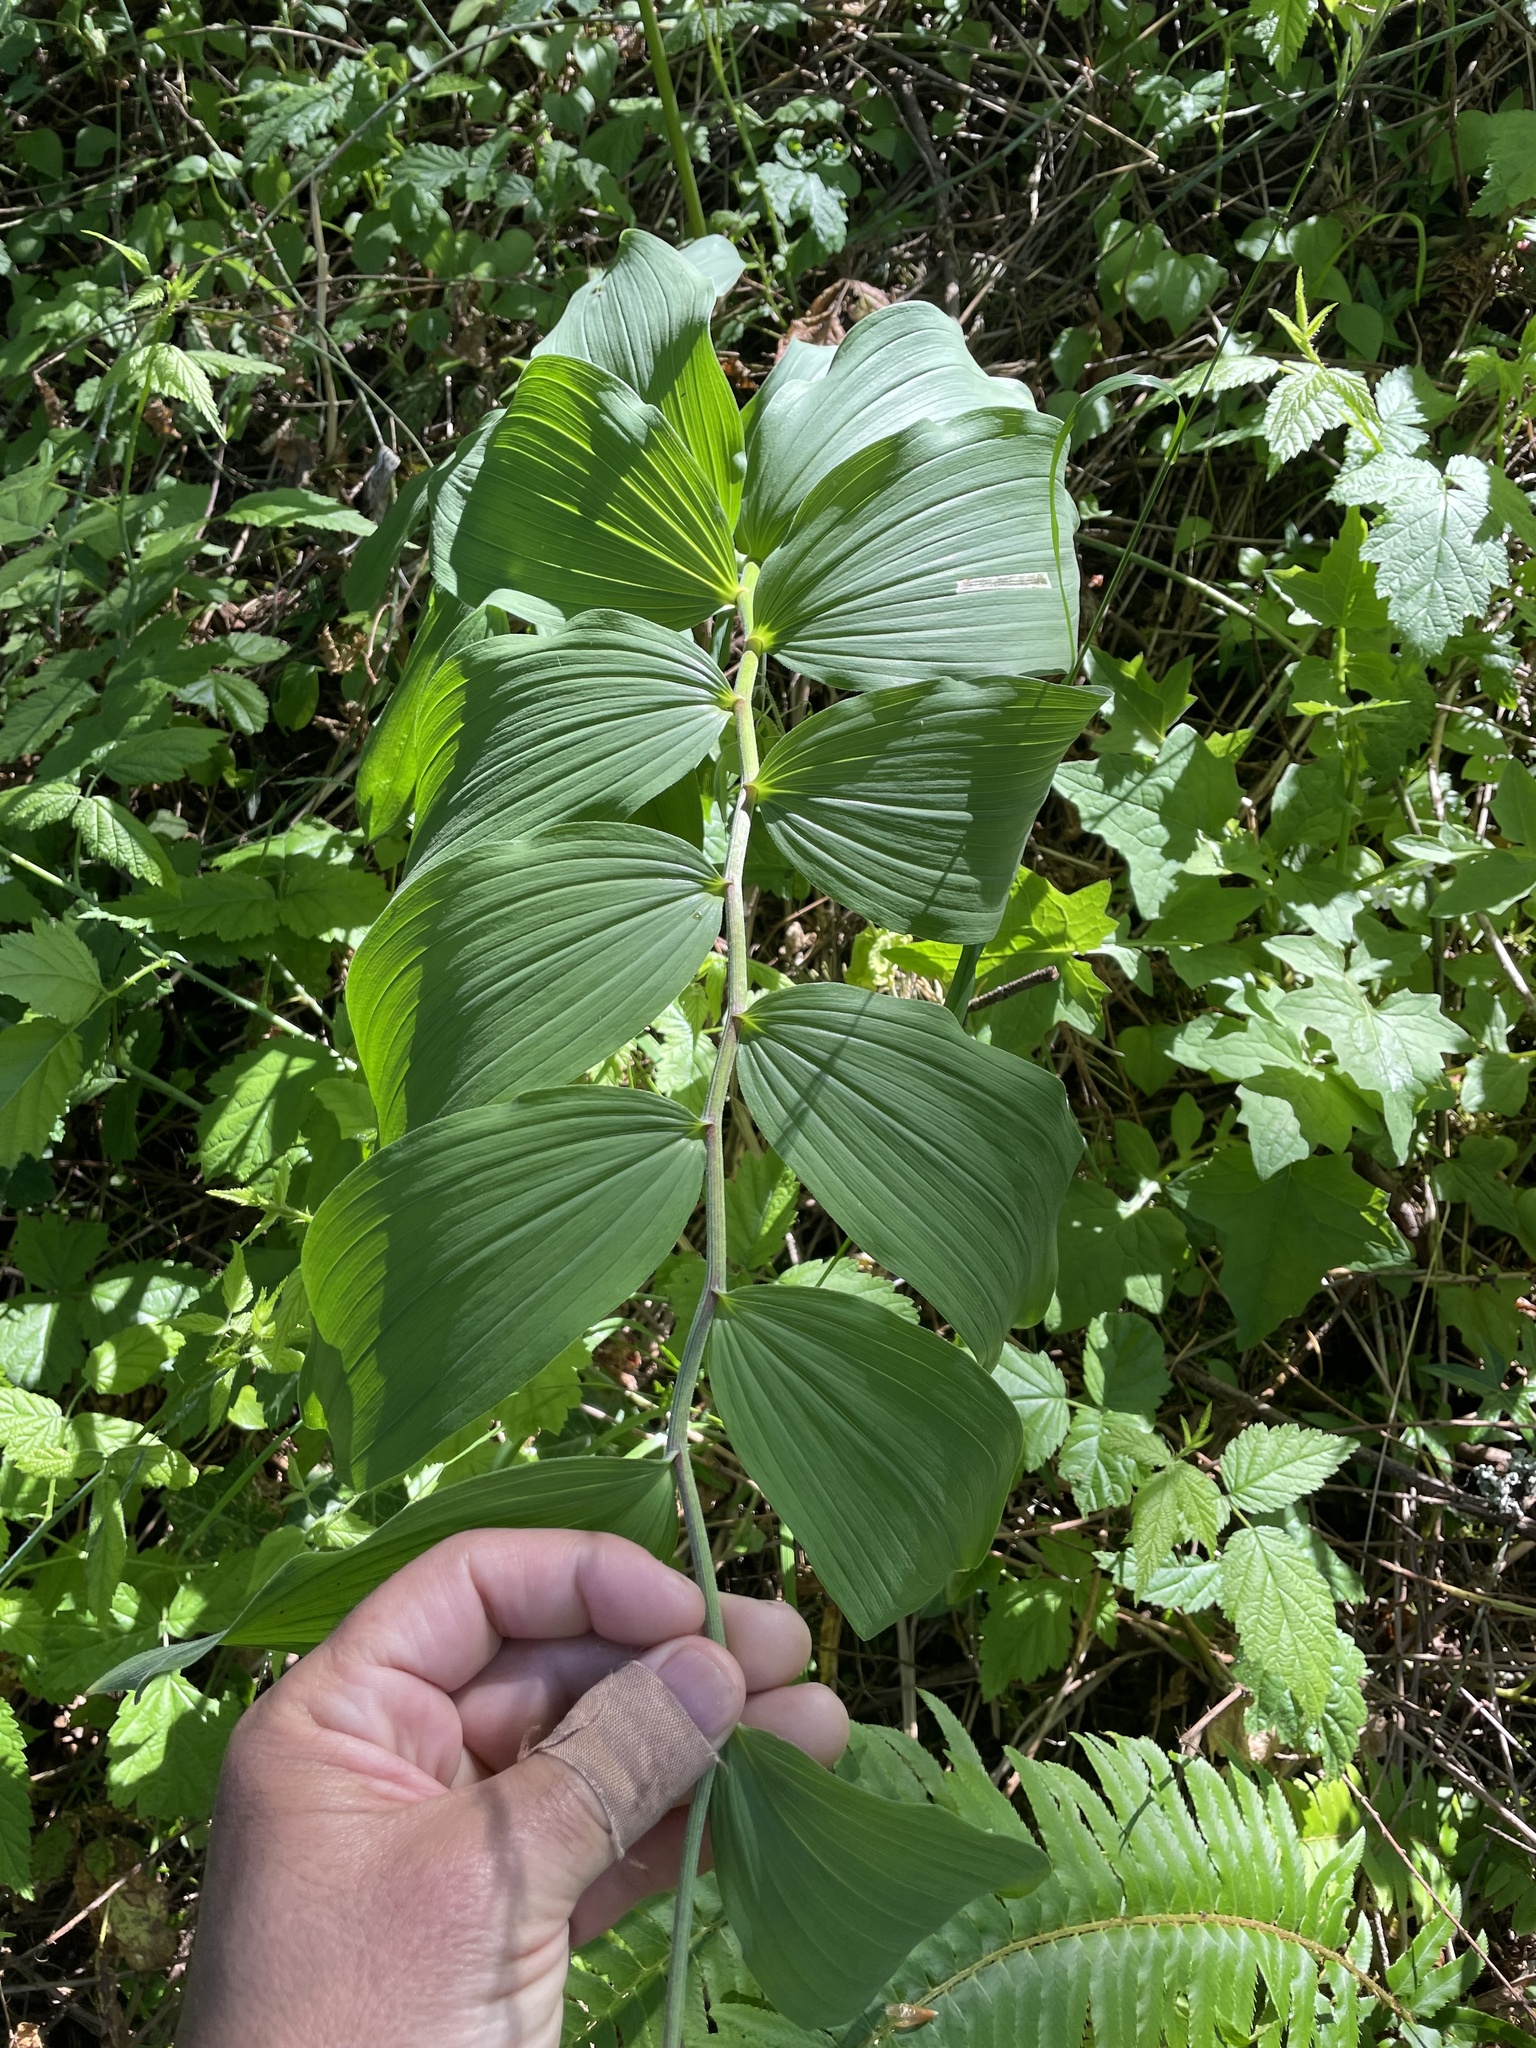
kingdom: Plantae
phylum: Tracheophyta
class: Liliopsida
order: Asparagales
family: Asparagaceae
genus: Maianthemum
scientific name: Maianthemum racemosum
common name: False spikenard
